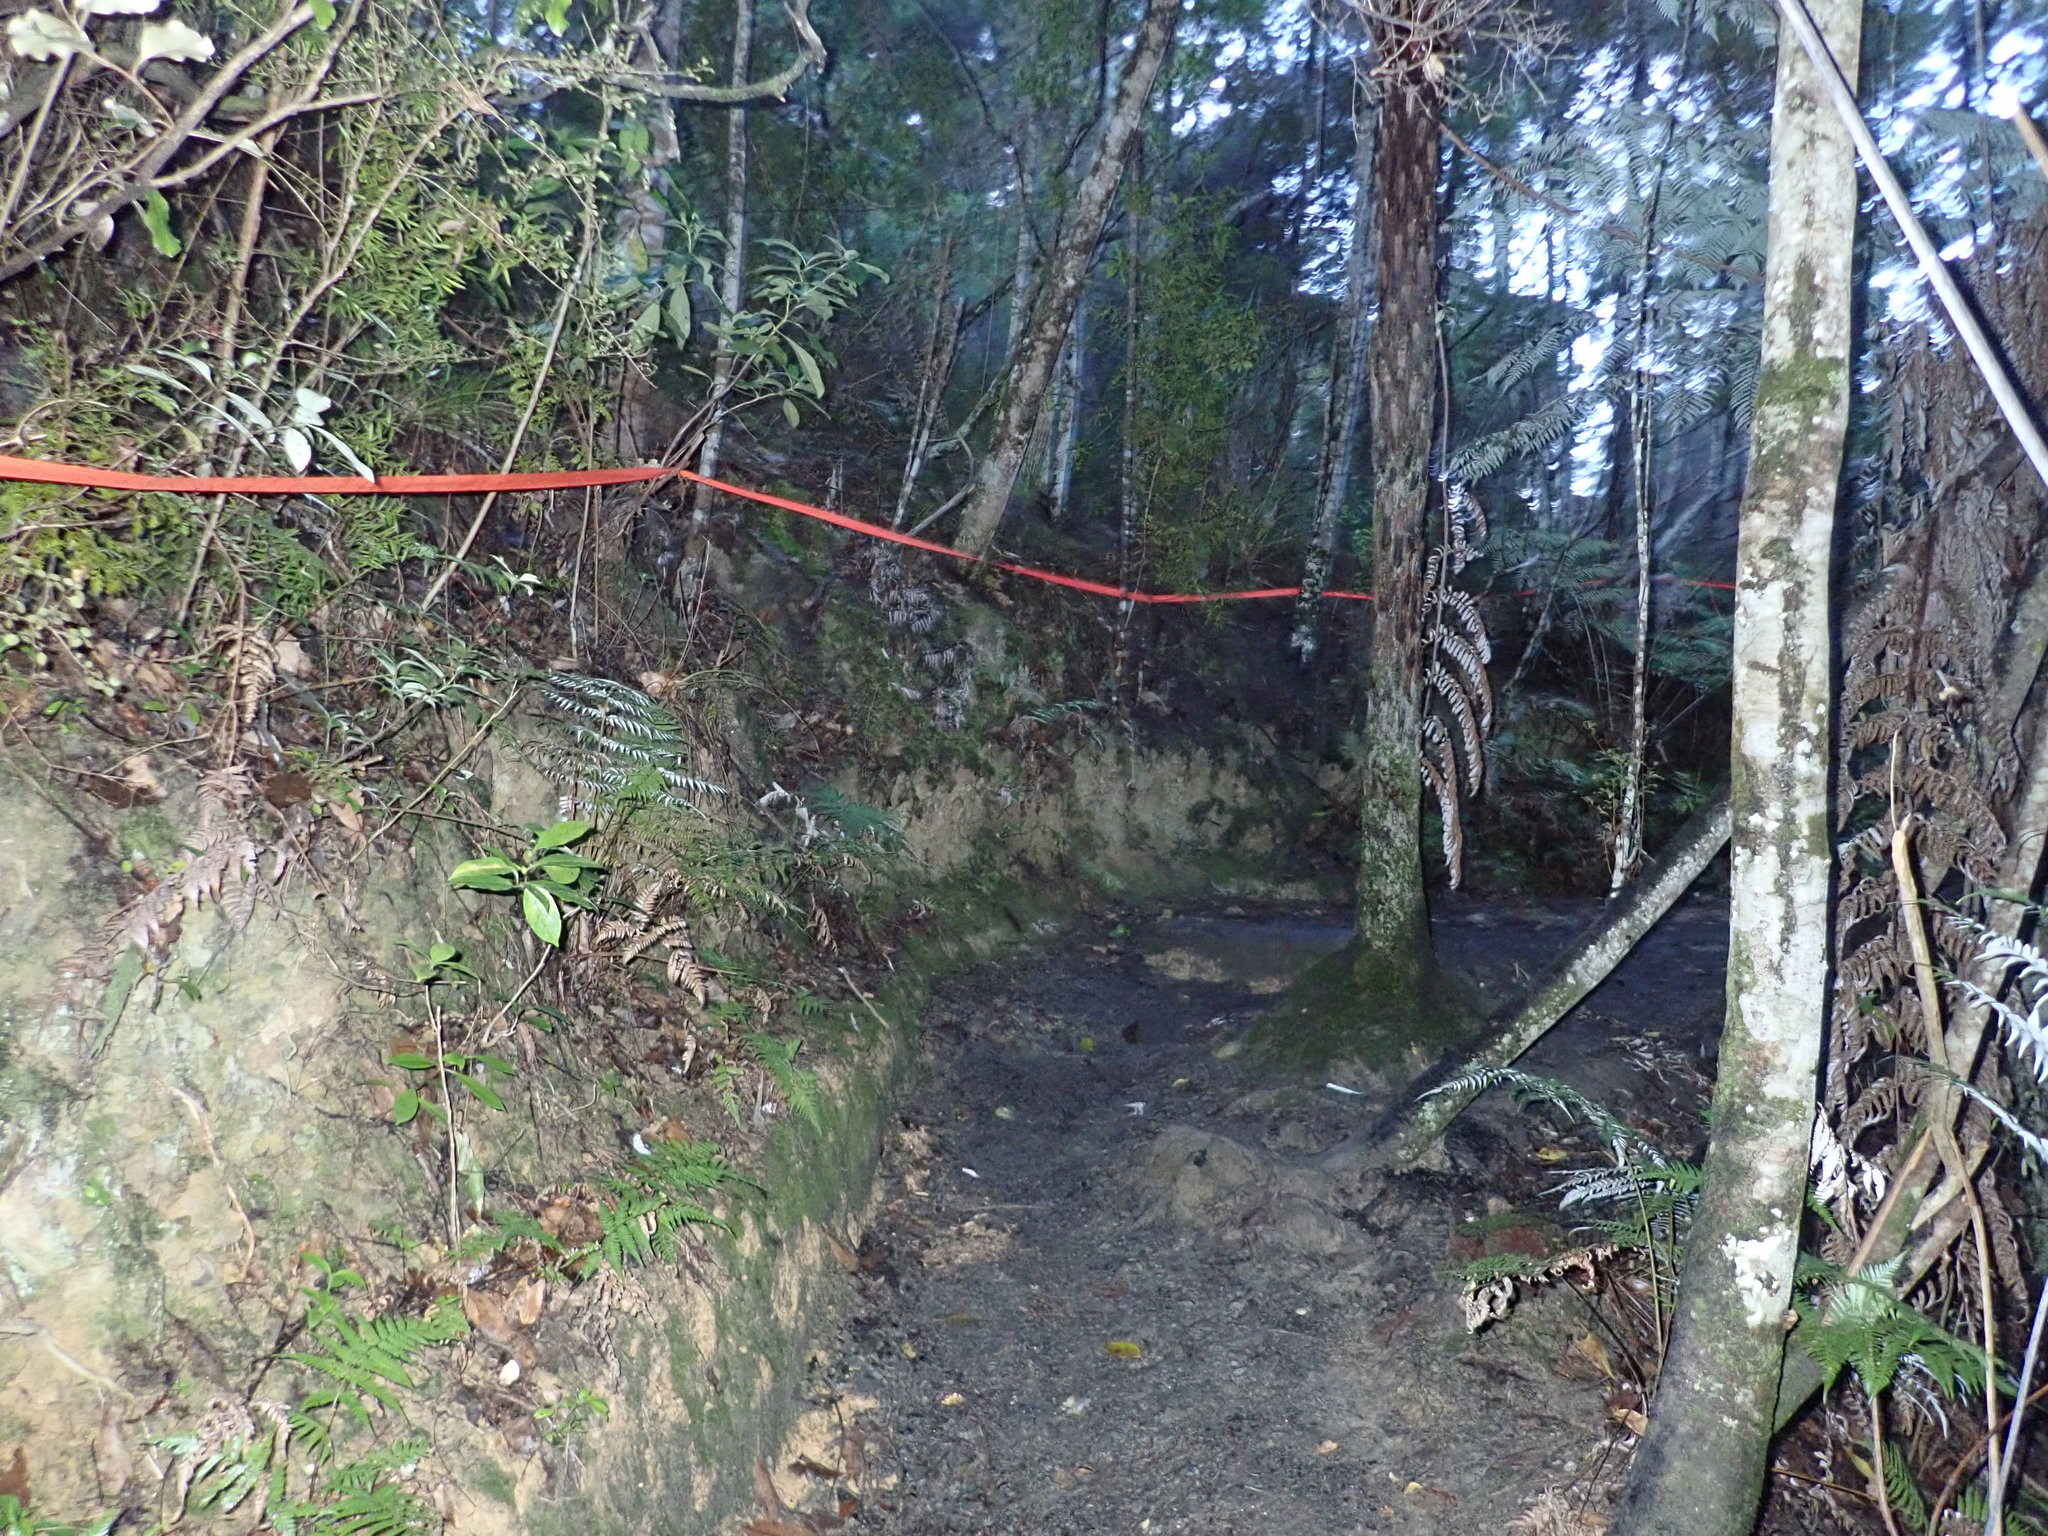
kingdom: Plantae
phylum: Tracheophyta
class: Pinopsida
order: Pinales
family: Podocarpaceae
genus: Podocarpus
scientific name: Podocarpus totara
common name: Totara
